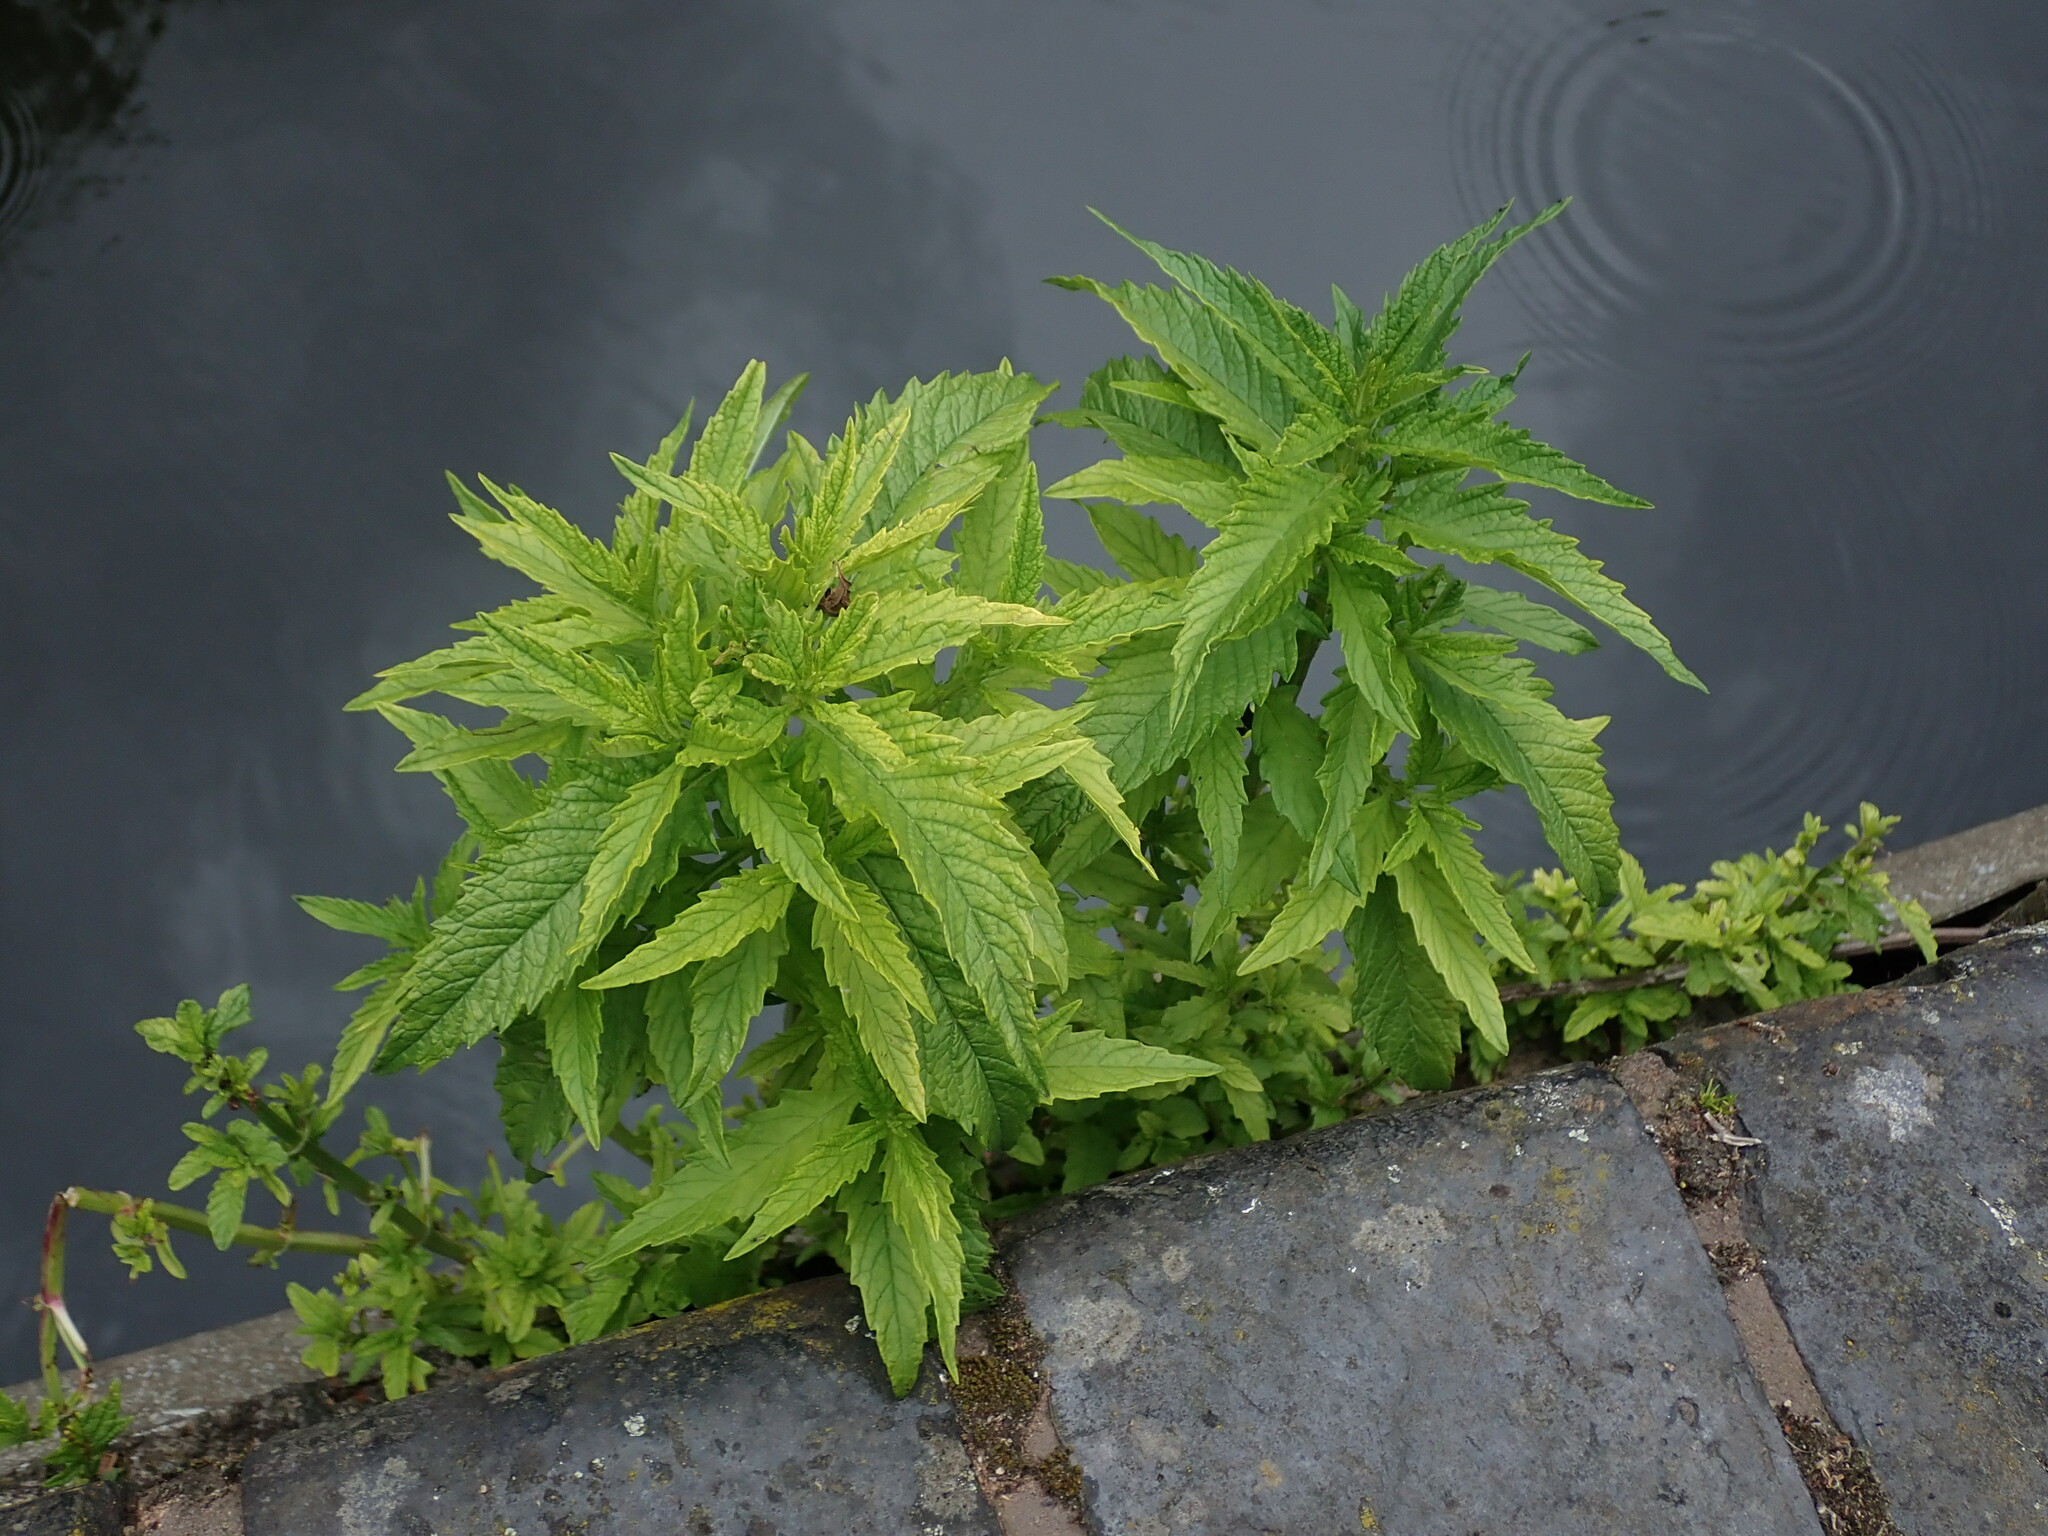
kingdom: Plantae
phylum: Tracheophyta
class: Magnoliopsida
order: Lamiales
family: Lamiaceae
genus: Lycopus
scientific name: Lycopus europaeus
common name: European bugleweed
